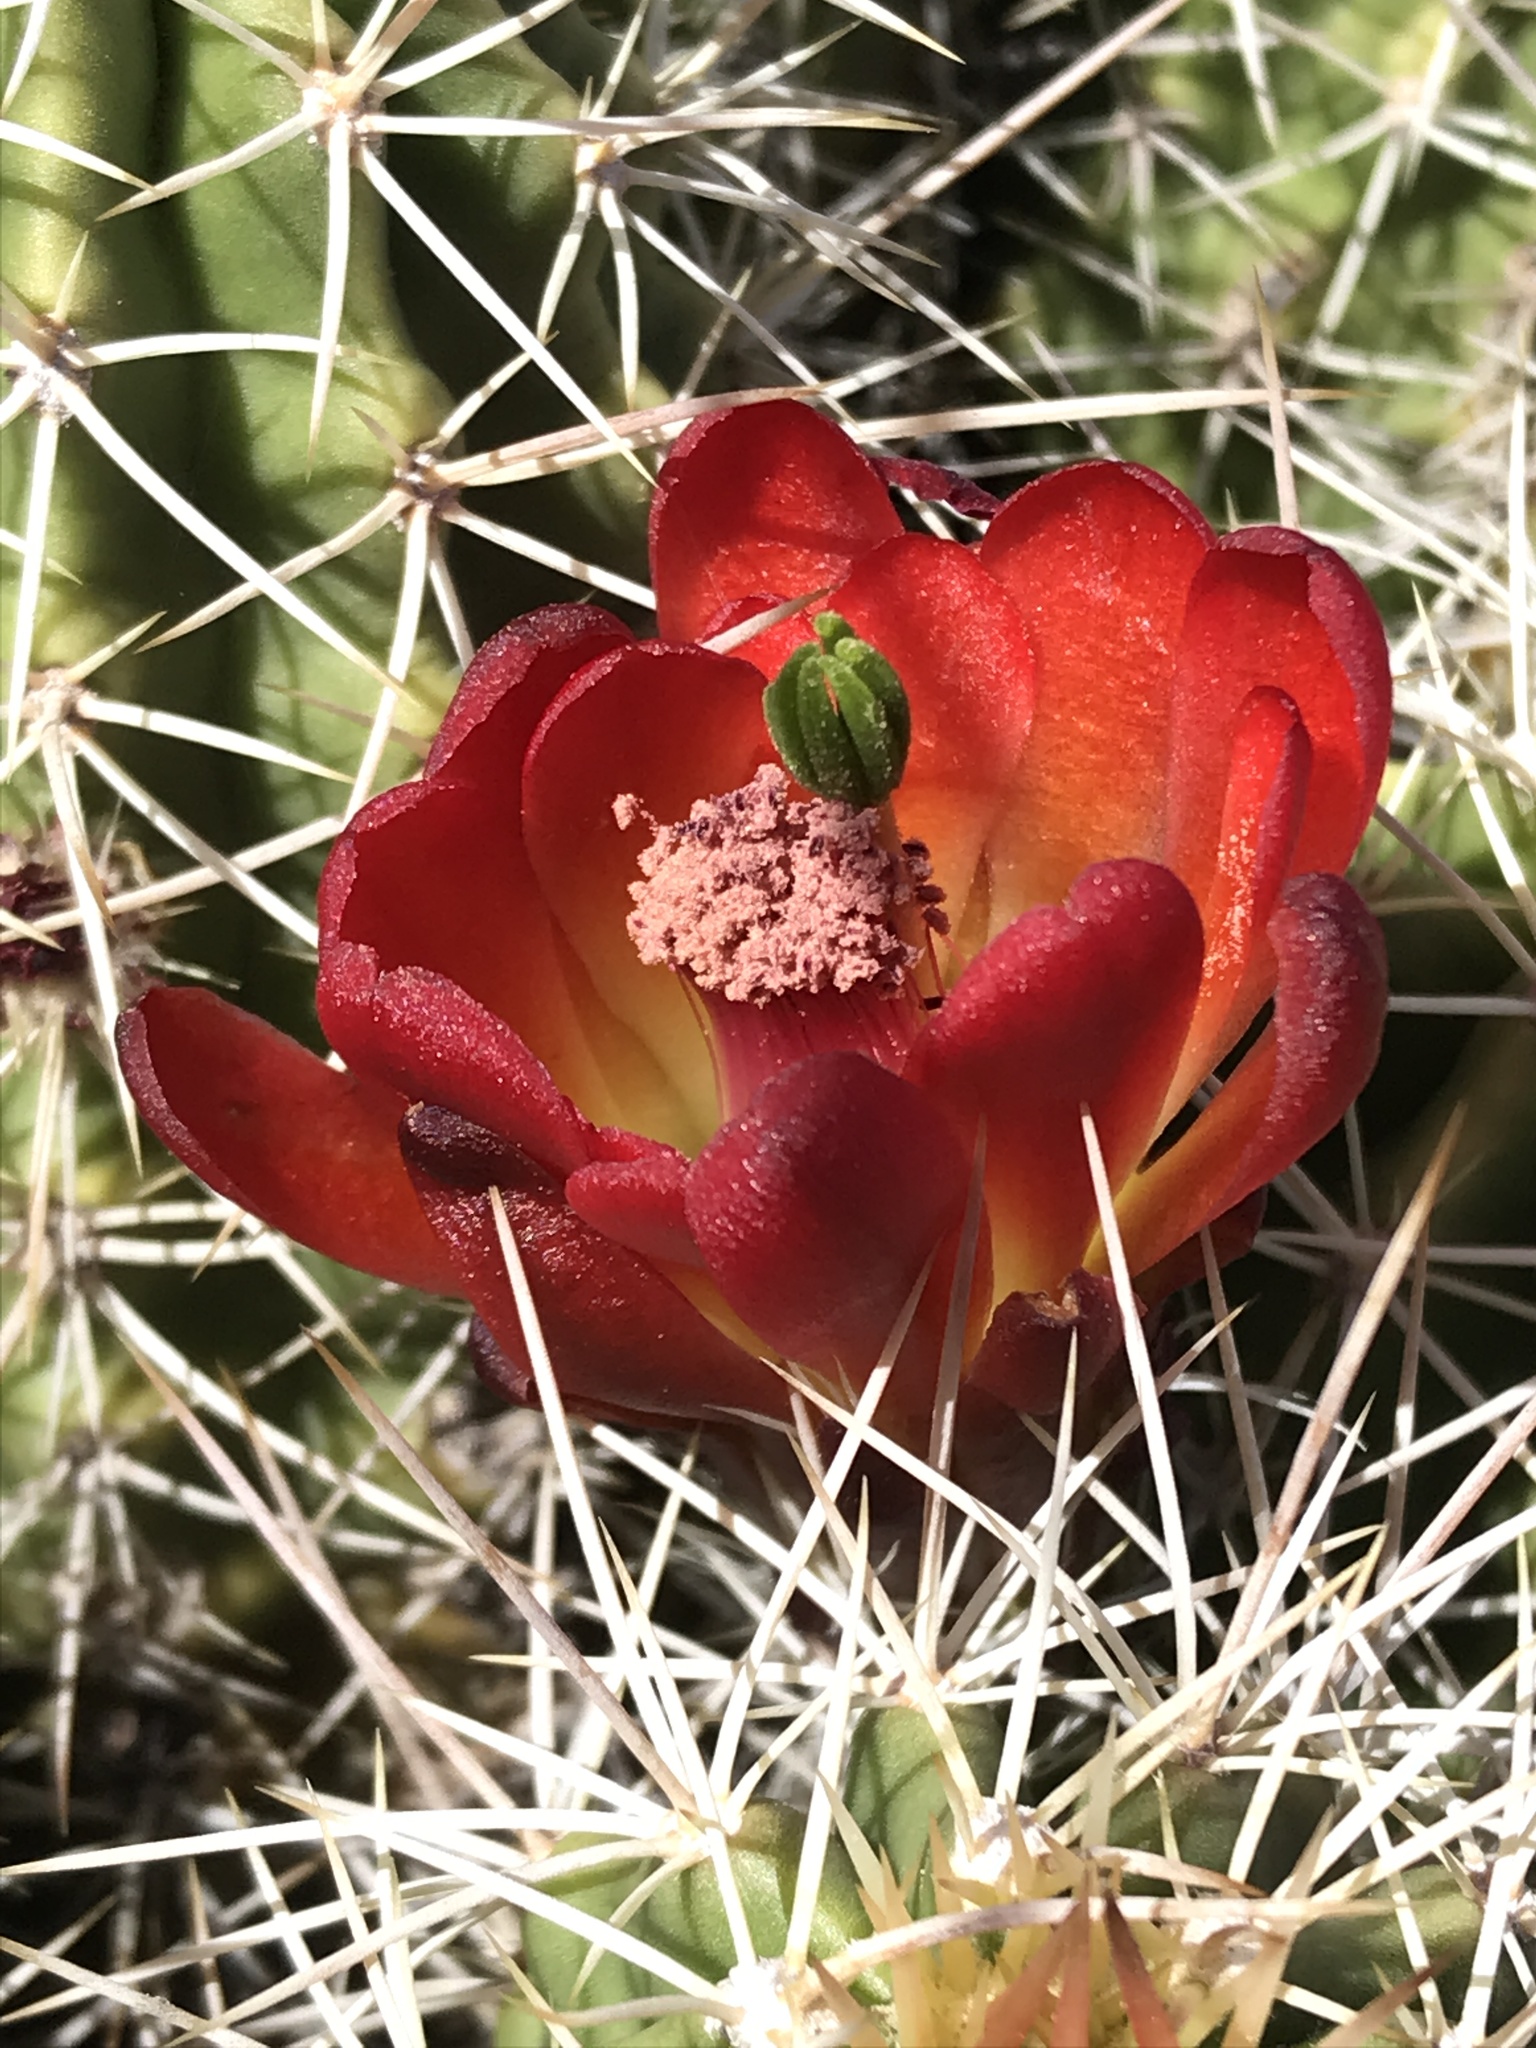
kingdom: Plantae
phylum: Tracheophyta
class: Magnoliopsida
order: Caryophyllales
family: Cactaceae
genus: Echinocereus
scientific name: Echinocereus triglochidiatus
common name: Claretcup hedgehog
